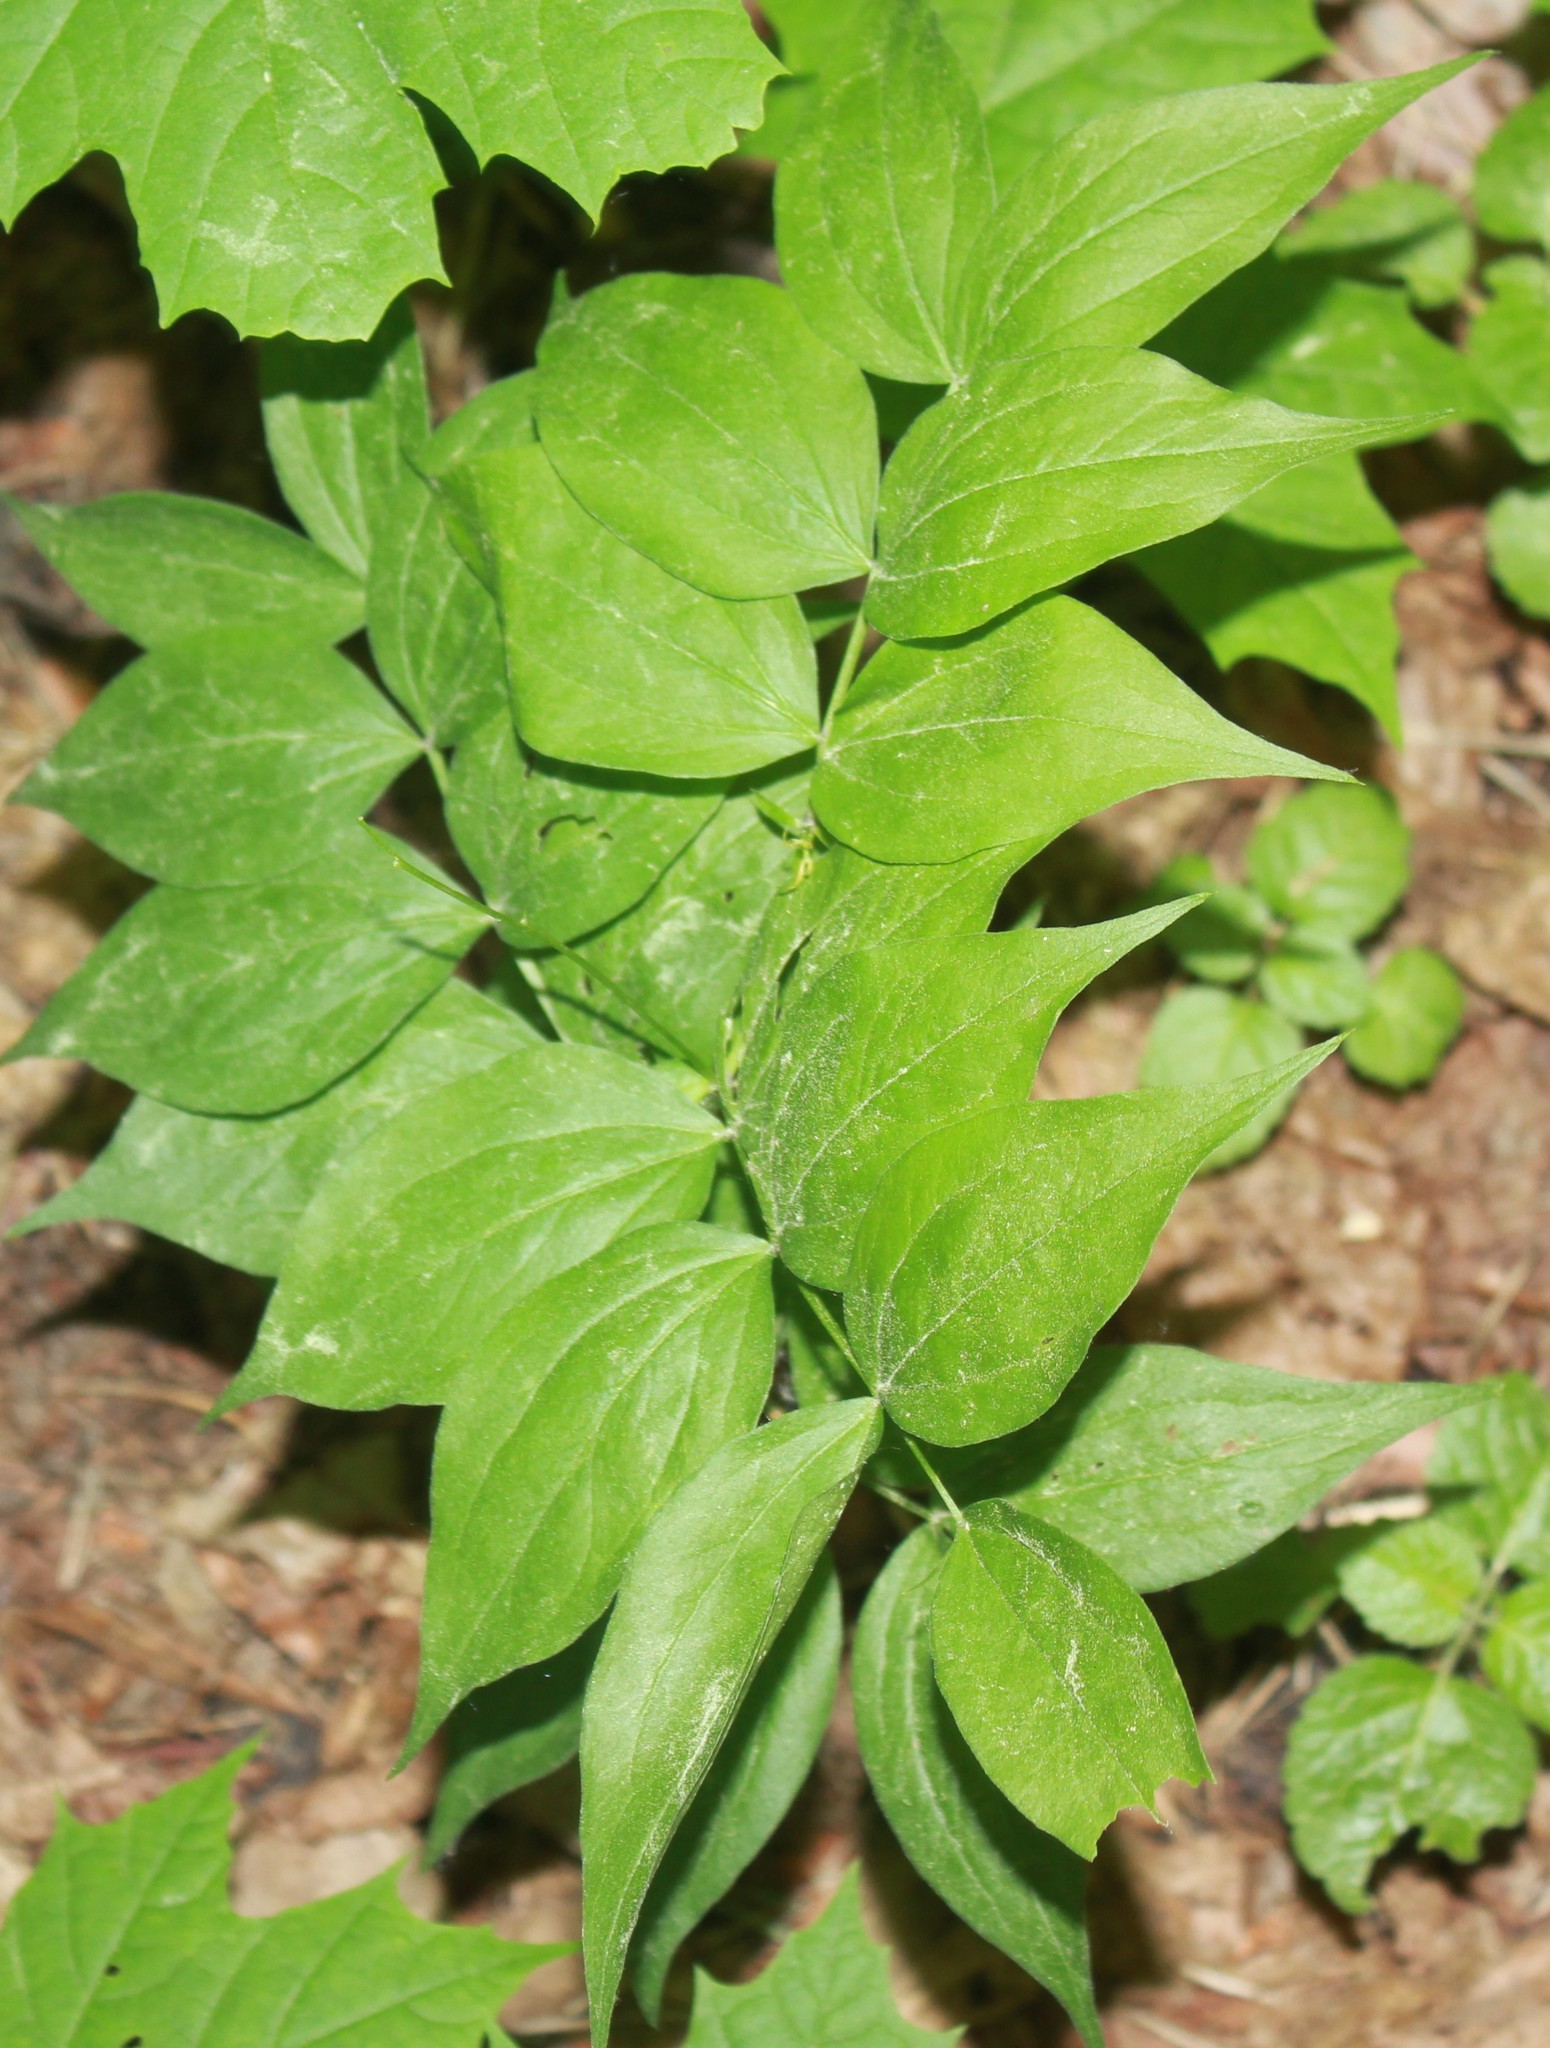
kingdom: Plantae
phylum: Tracheophyta
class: Magnoliopsida
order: Fabales
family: Fabaceae
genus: Lathyrus
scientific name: Lathyrus vernus
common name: Spring pea
